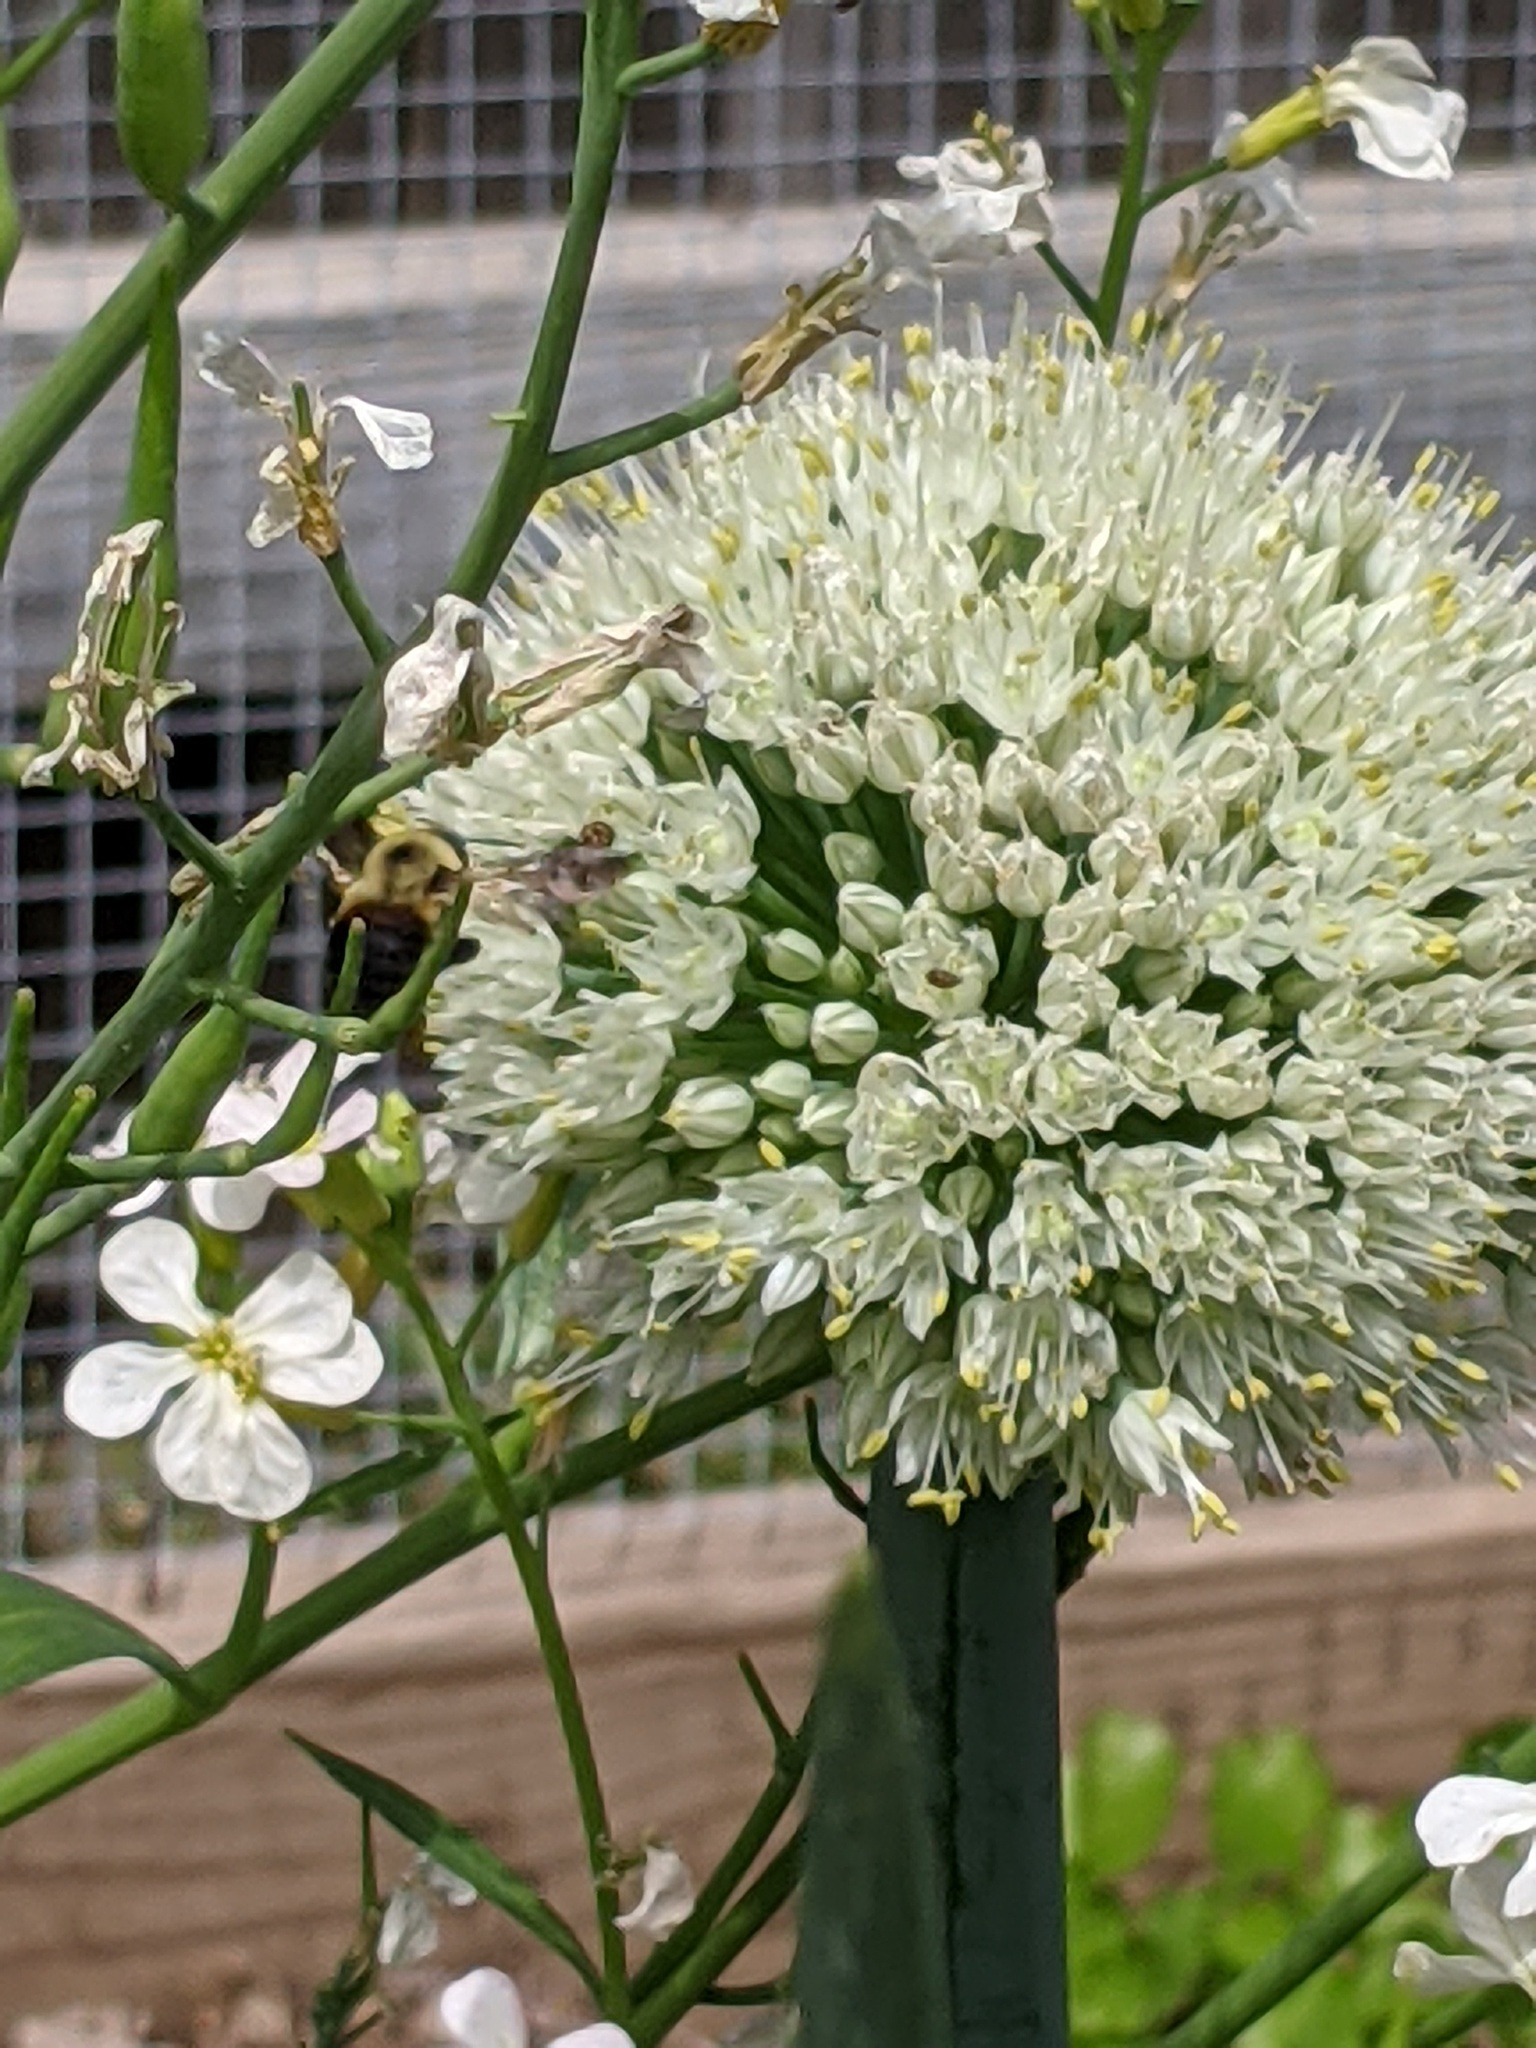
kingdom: Animalia
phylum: Arthropoda
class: Insecta
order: Hymenoptera
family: Apidae
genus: Bombus
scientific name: Bombus griseocollis
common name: Brown-belted bumble bee
